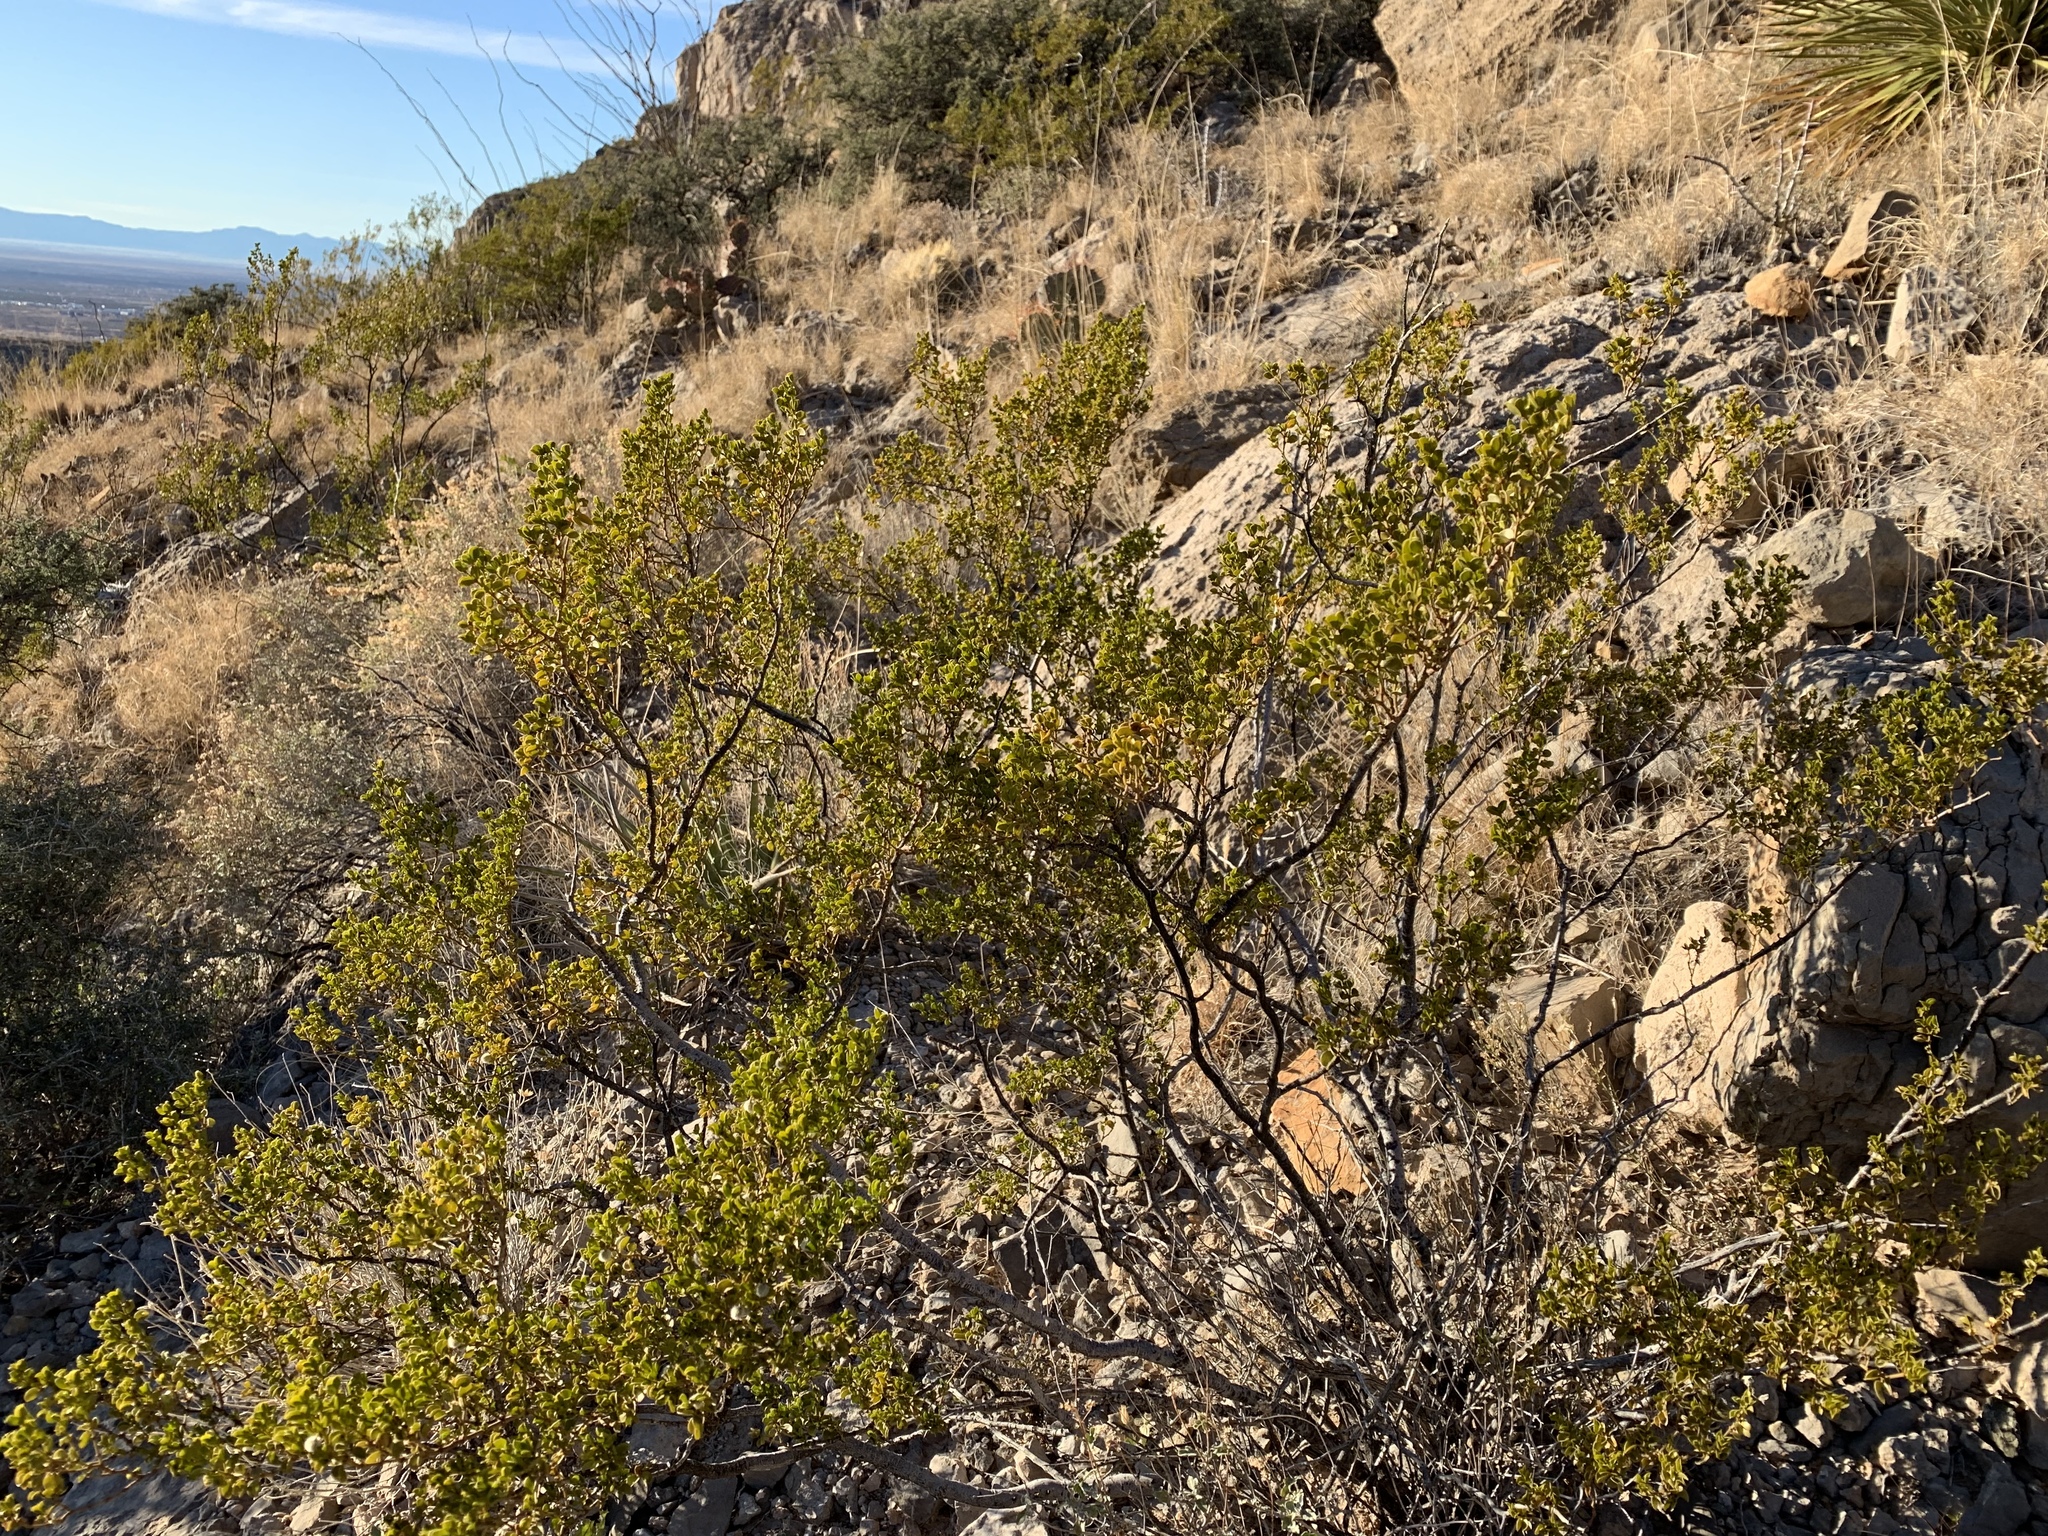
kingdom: Plantae
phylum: Tracheophyta
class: Magnoliopsida
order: Zygophyllales
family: Zygophyllaceae
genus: Larrea
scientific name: Larrea tridentata
